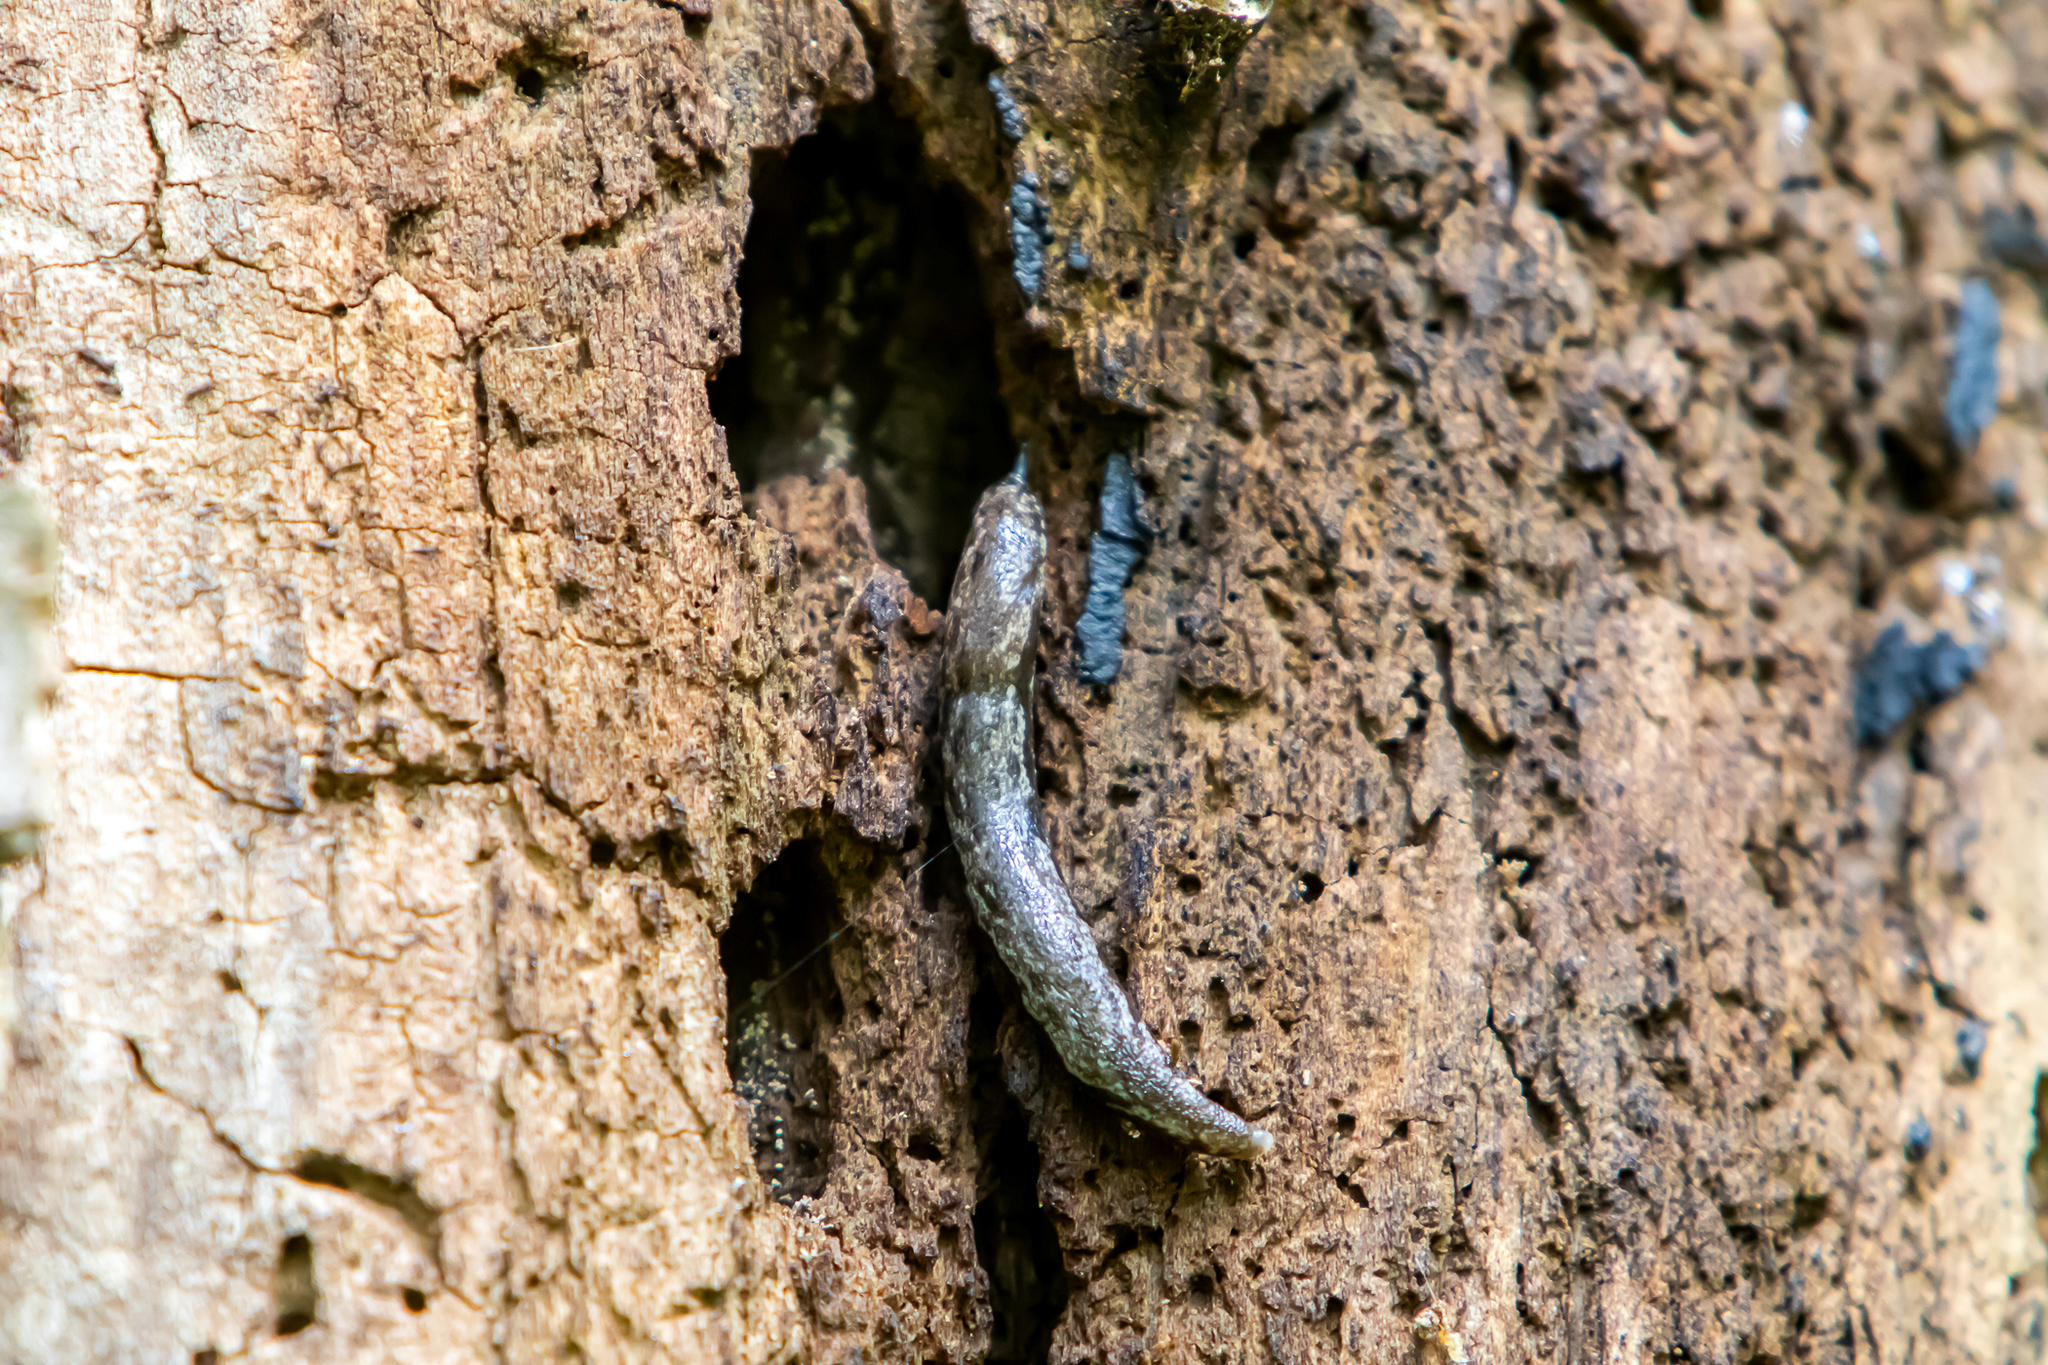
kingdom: Animalia
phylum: Mollusca
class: Gastropoda
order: Stylommatophora
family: Philomycidae
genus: Megapallifera
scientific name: Megapallifera mutabilis
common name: Changeable mantleslug
